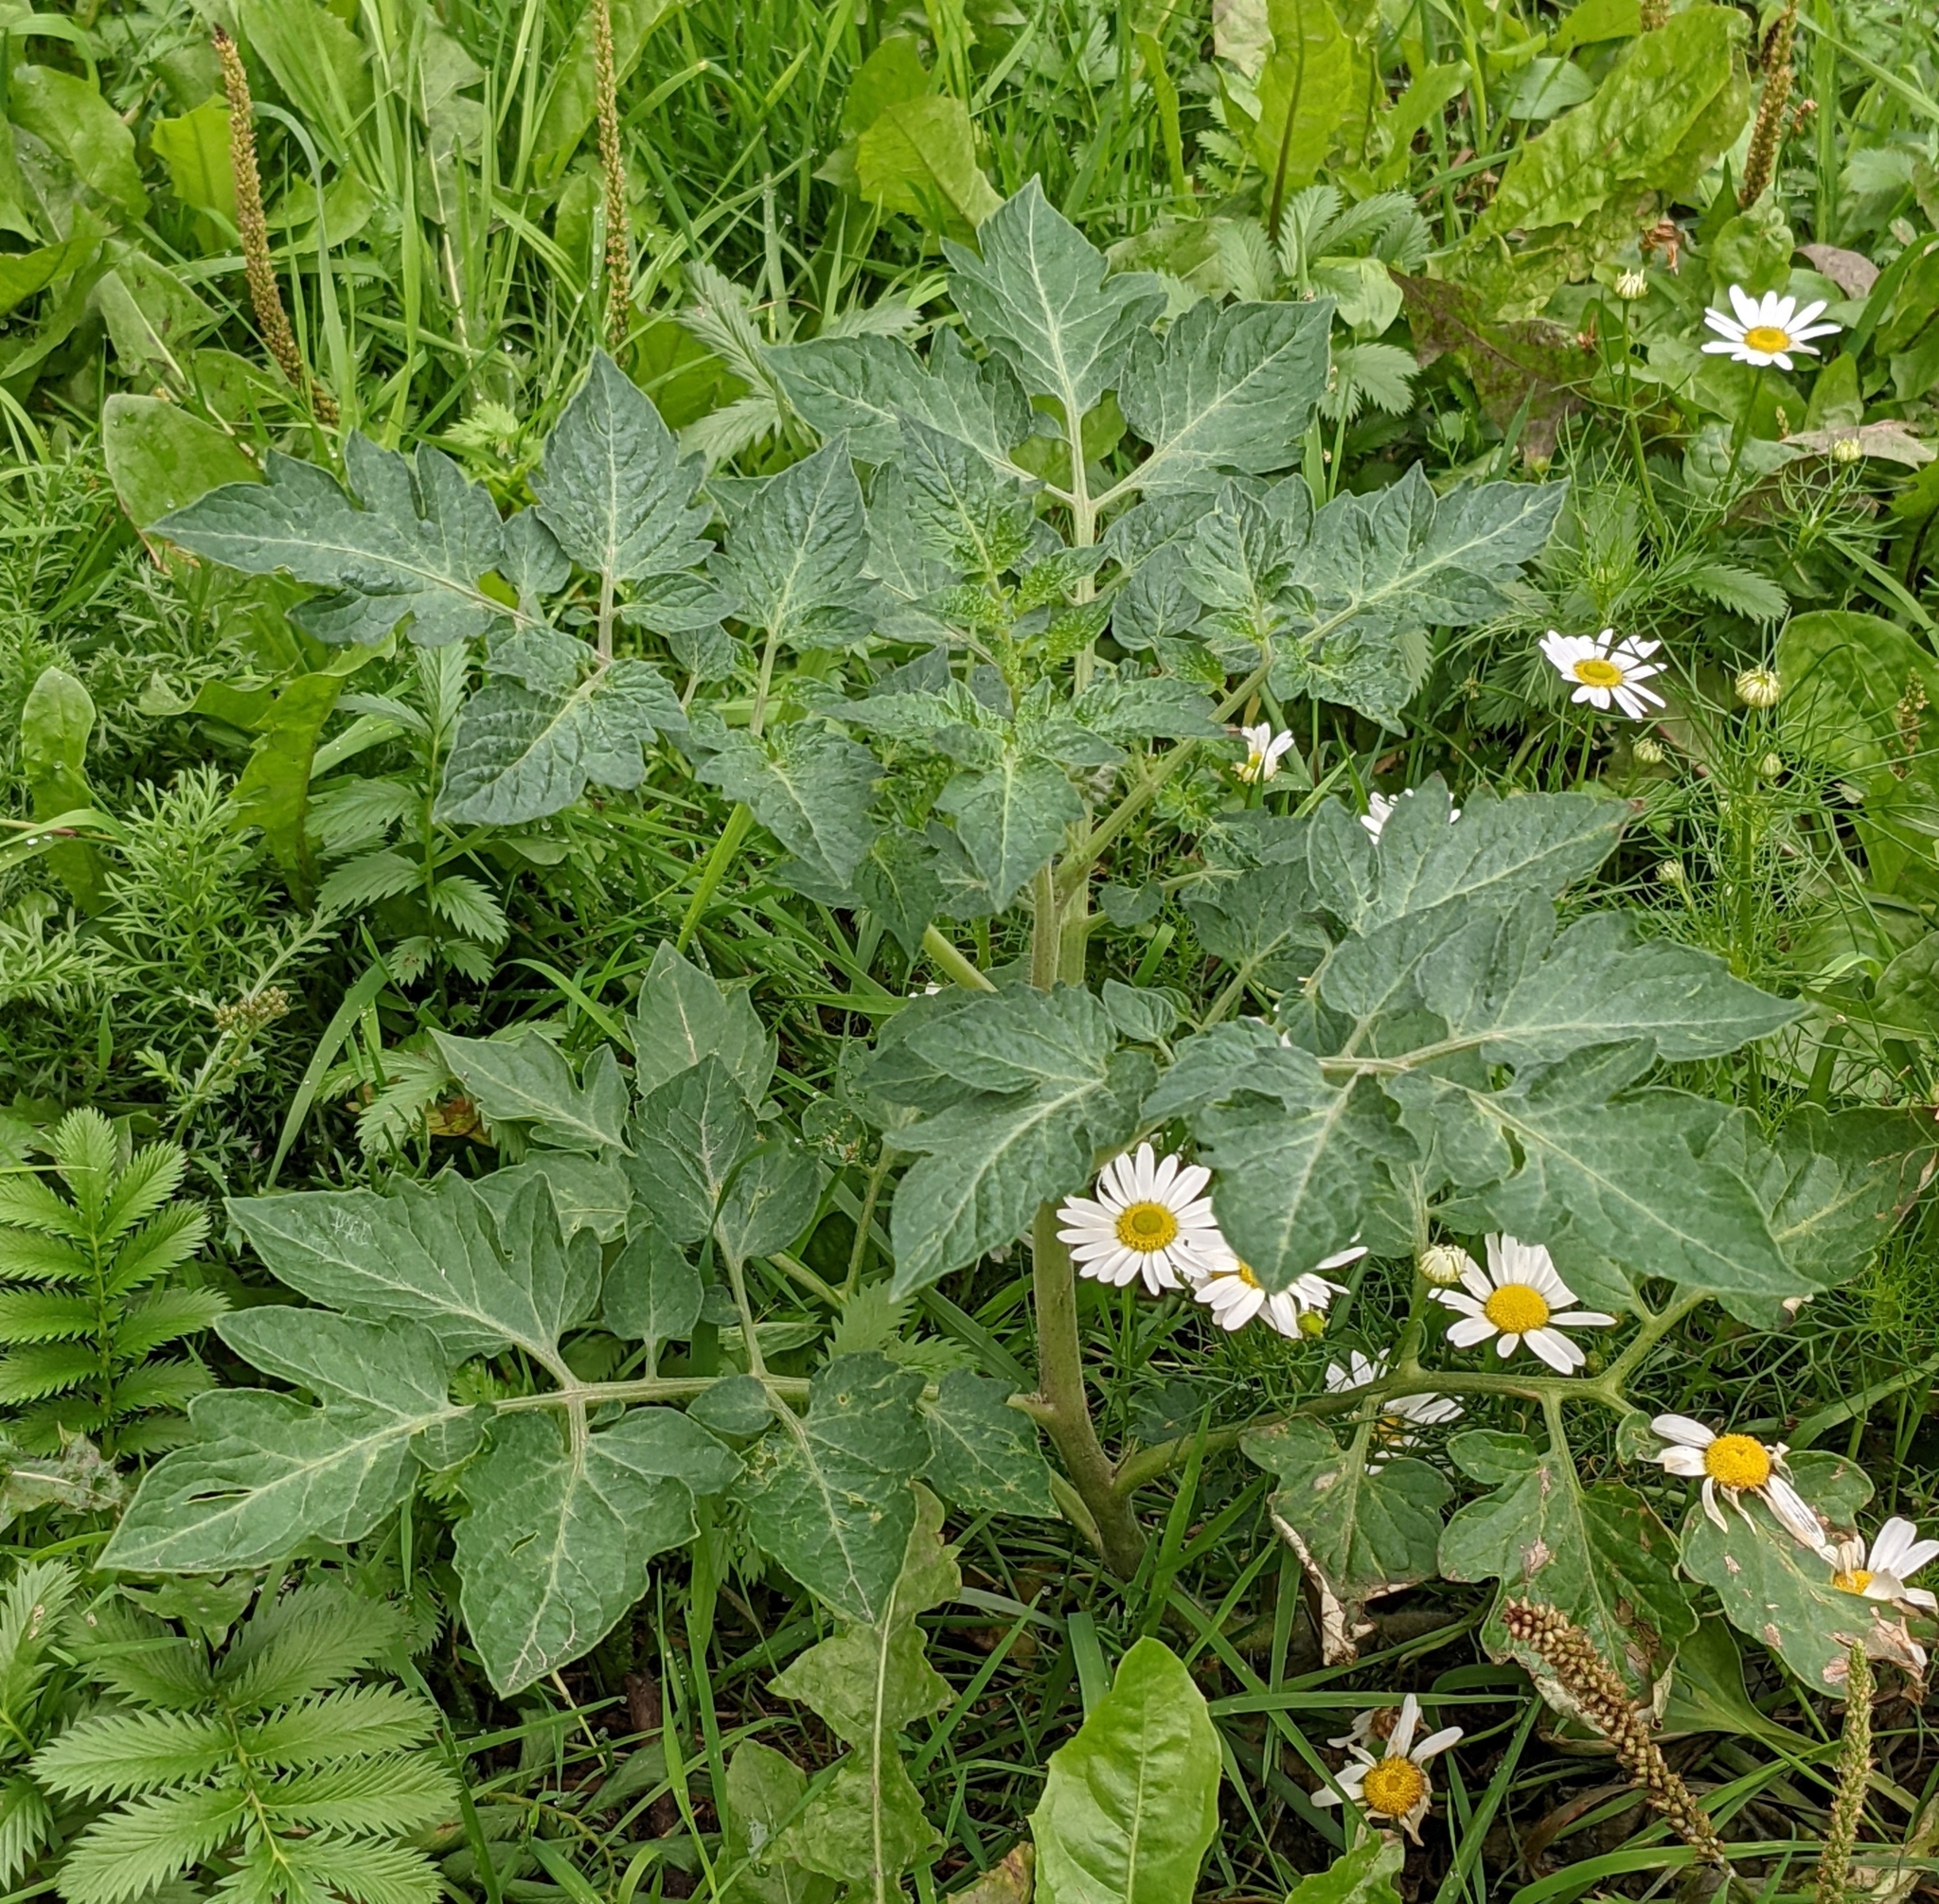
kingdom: Plantae
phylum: Tracheophyta
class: Magnoliopsida
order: Solanales
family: Solanaceae
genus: Solanum
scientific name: Solanum lycopersicum
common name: Garden tomato
